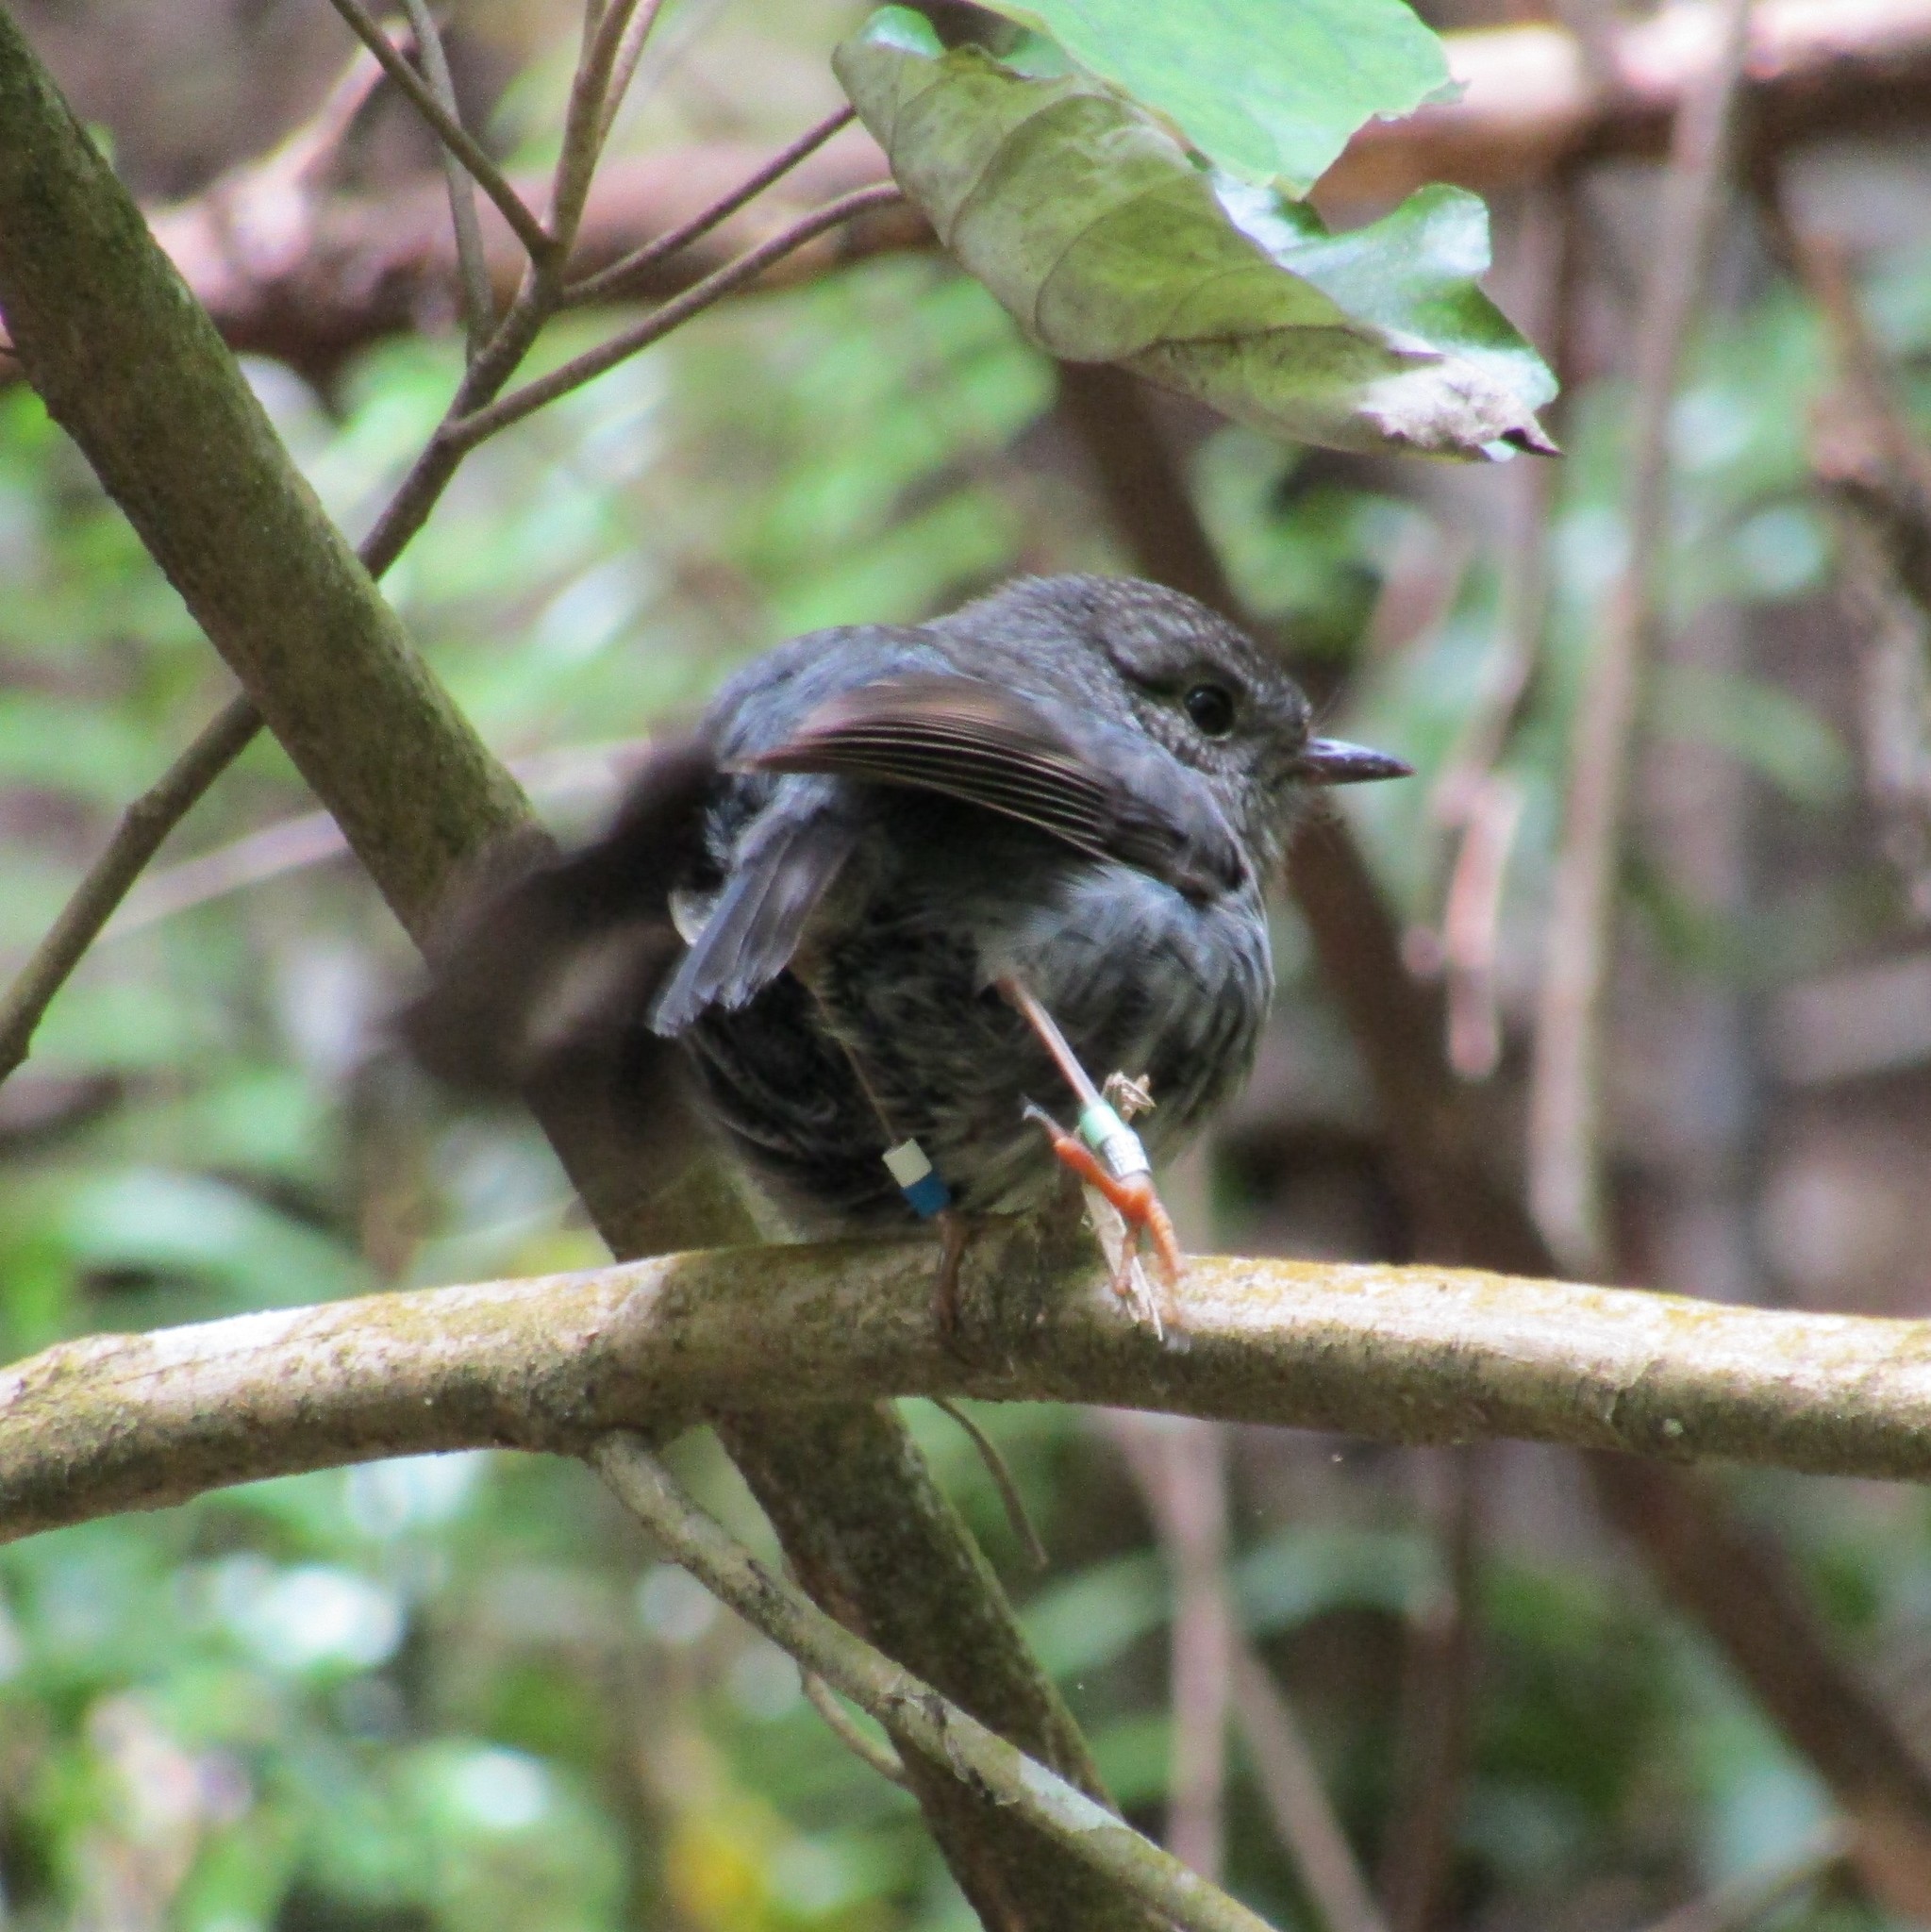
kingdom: Animalia
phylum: Chordata
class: Aves
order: Passeriformes
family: Petroicidae
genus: Petroica
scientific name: Petroica australis
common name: New zealand robin
